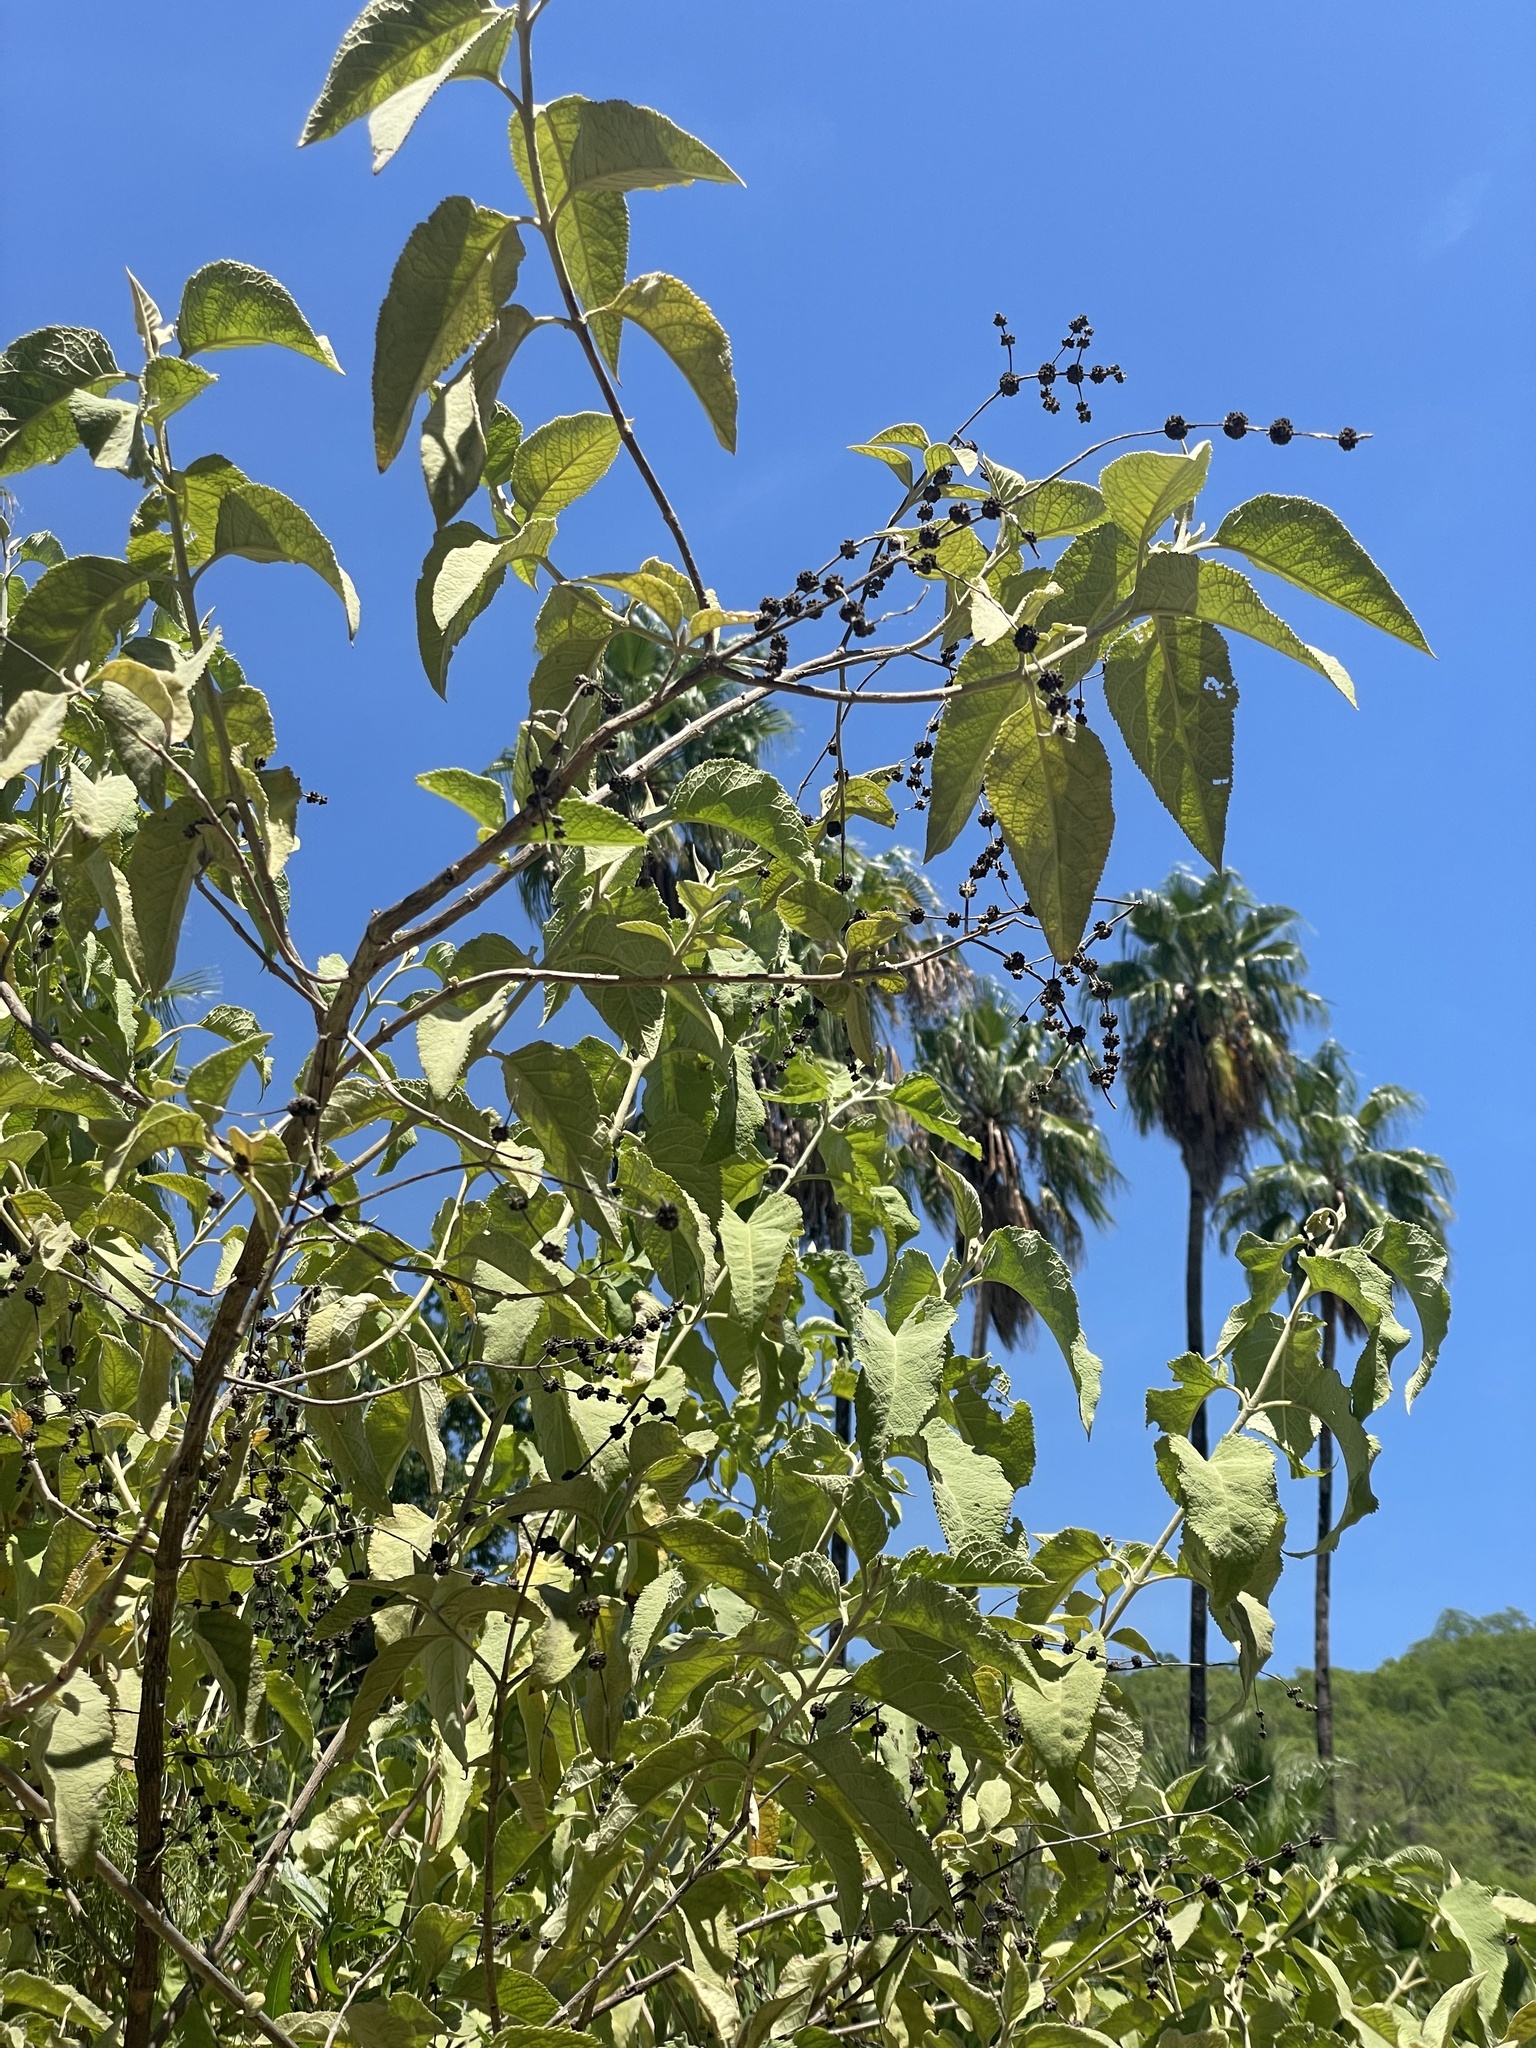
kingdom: Plantae
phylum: Tracheophyta
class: Magnoliopsida
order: Lamiales
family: Scrophulariaceae
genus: Buddleja
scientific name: Buddleja crotonoides
